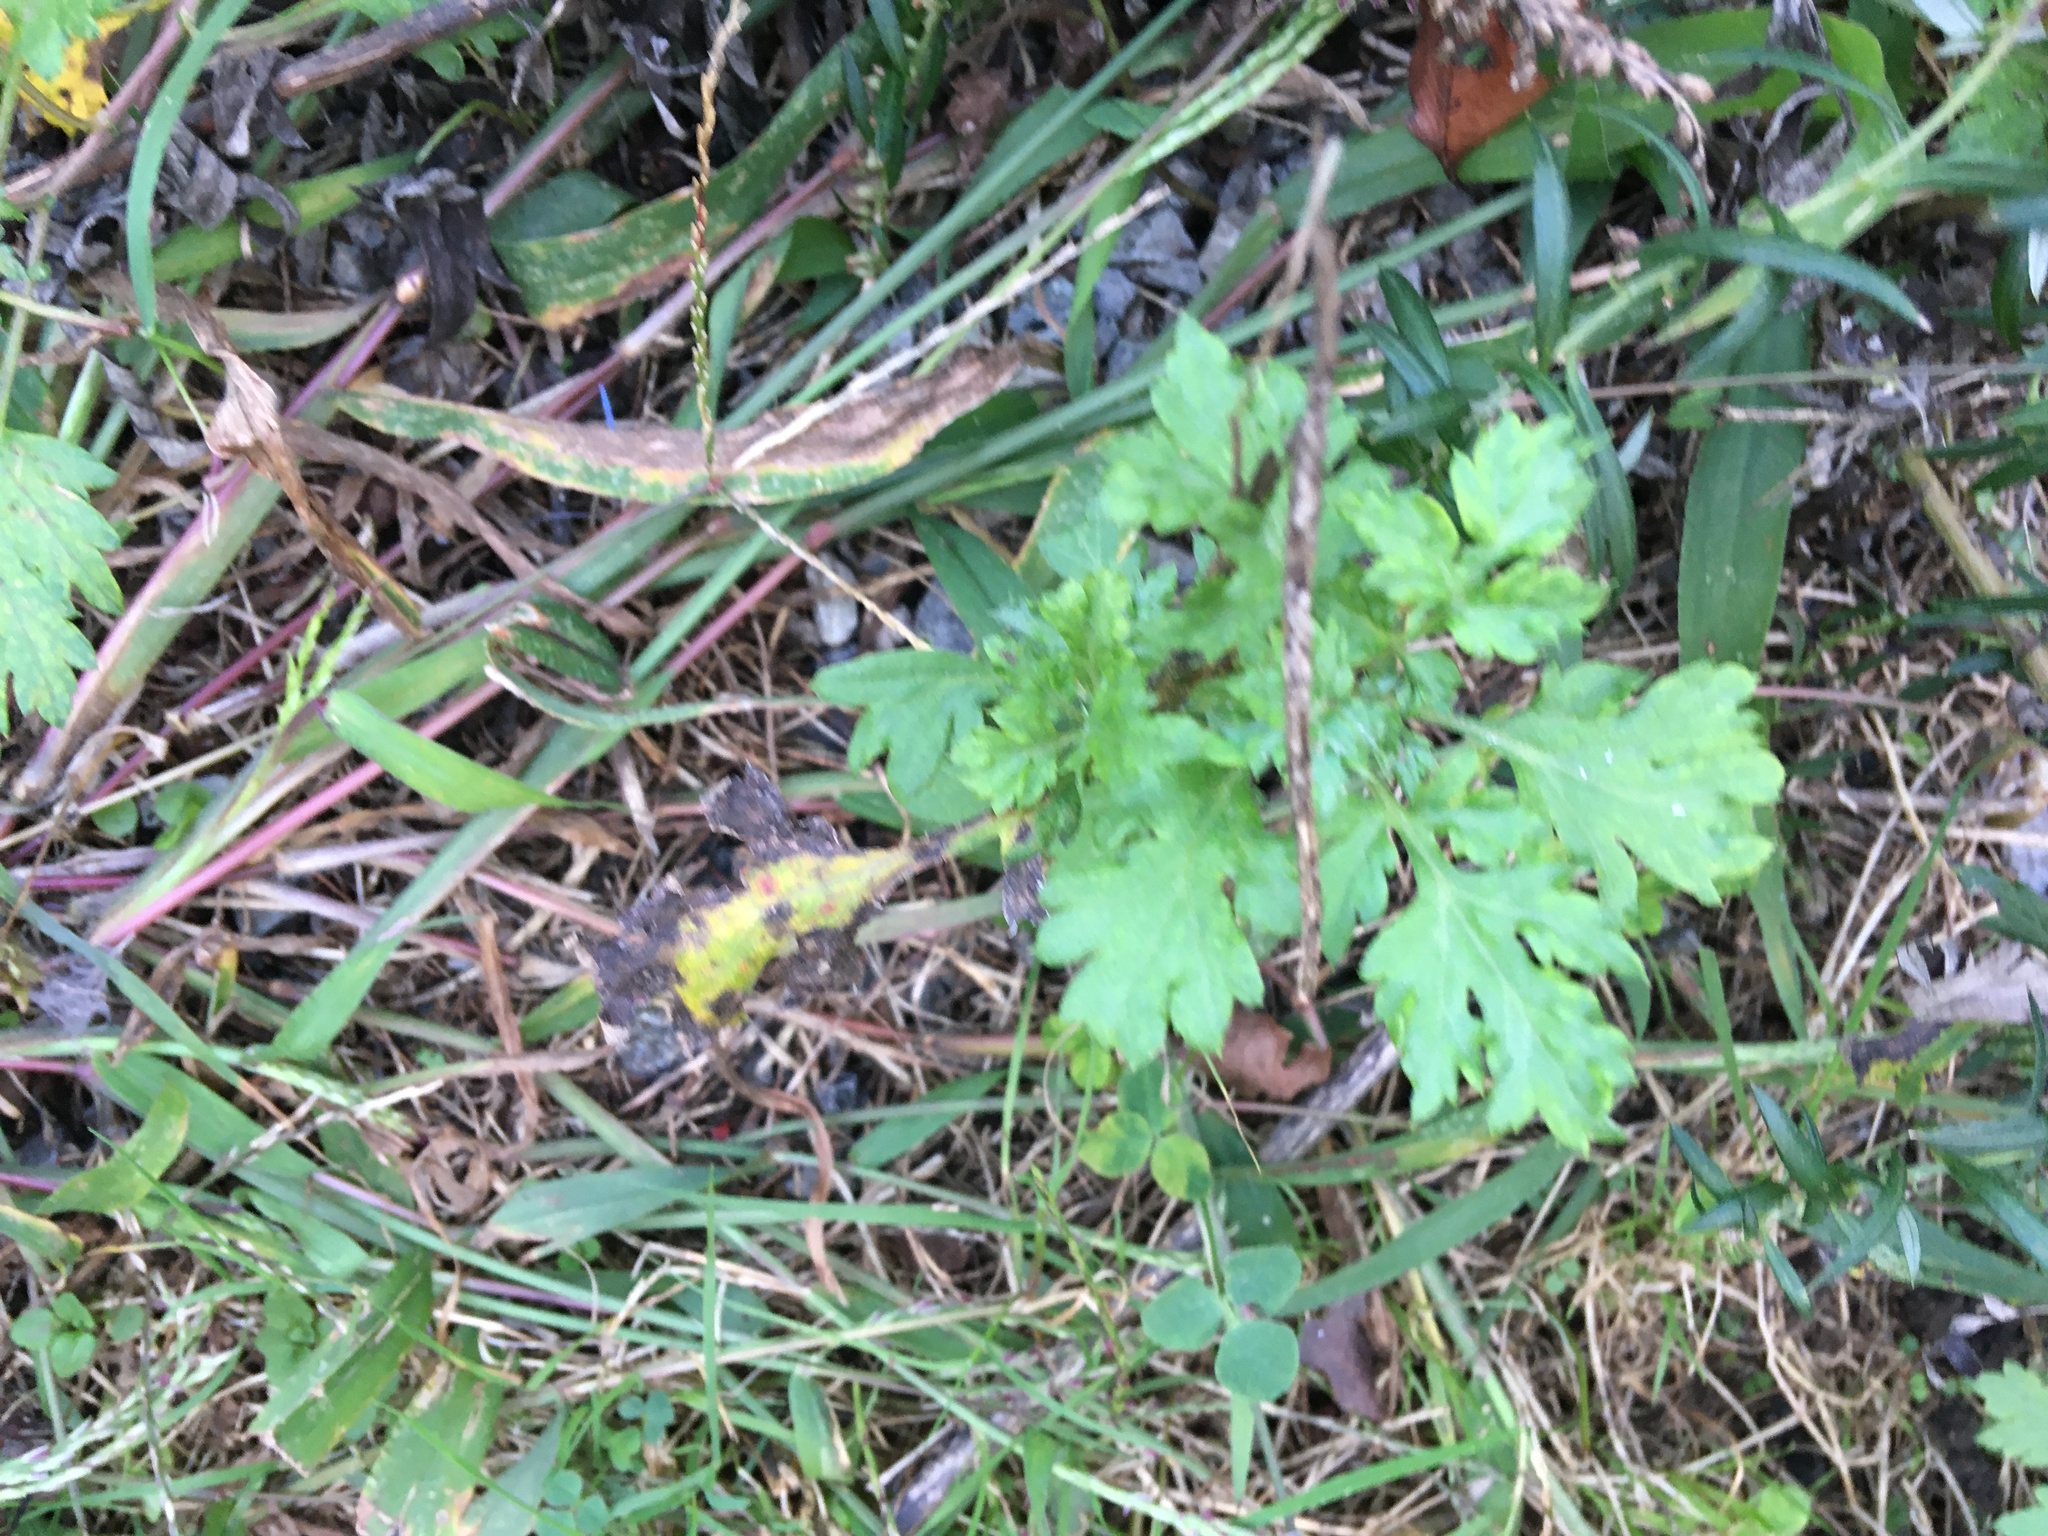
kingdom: Plantae
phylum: Tracheophyta
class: Magnoliopsida
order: Asterales
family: Asteraceae
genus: Artemisia
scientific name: Artemisia vulgaris
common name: Mugwort
